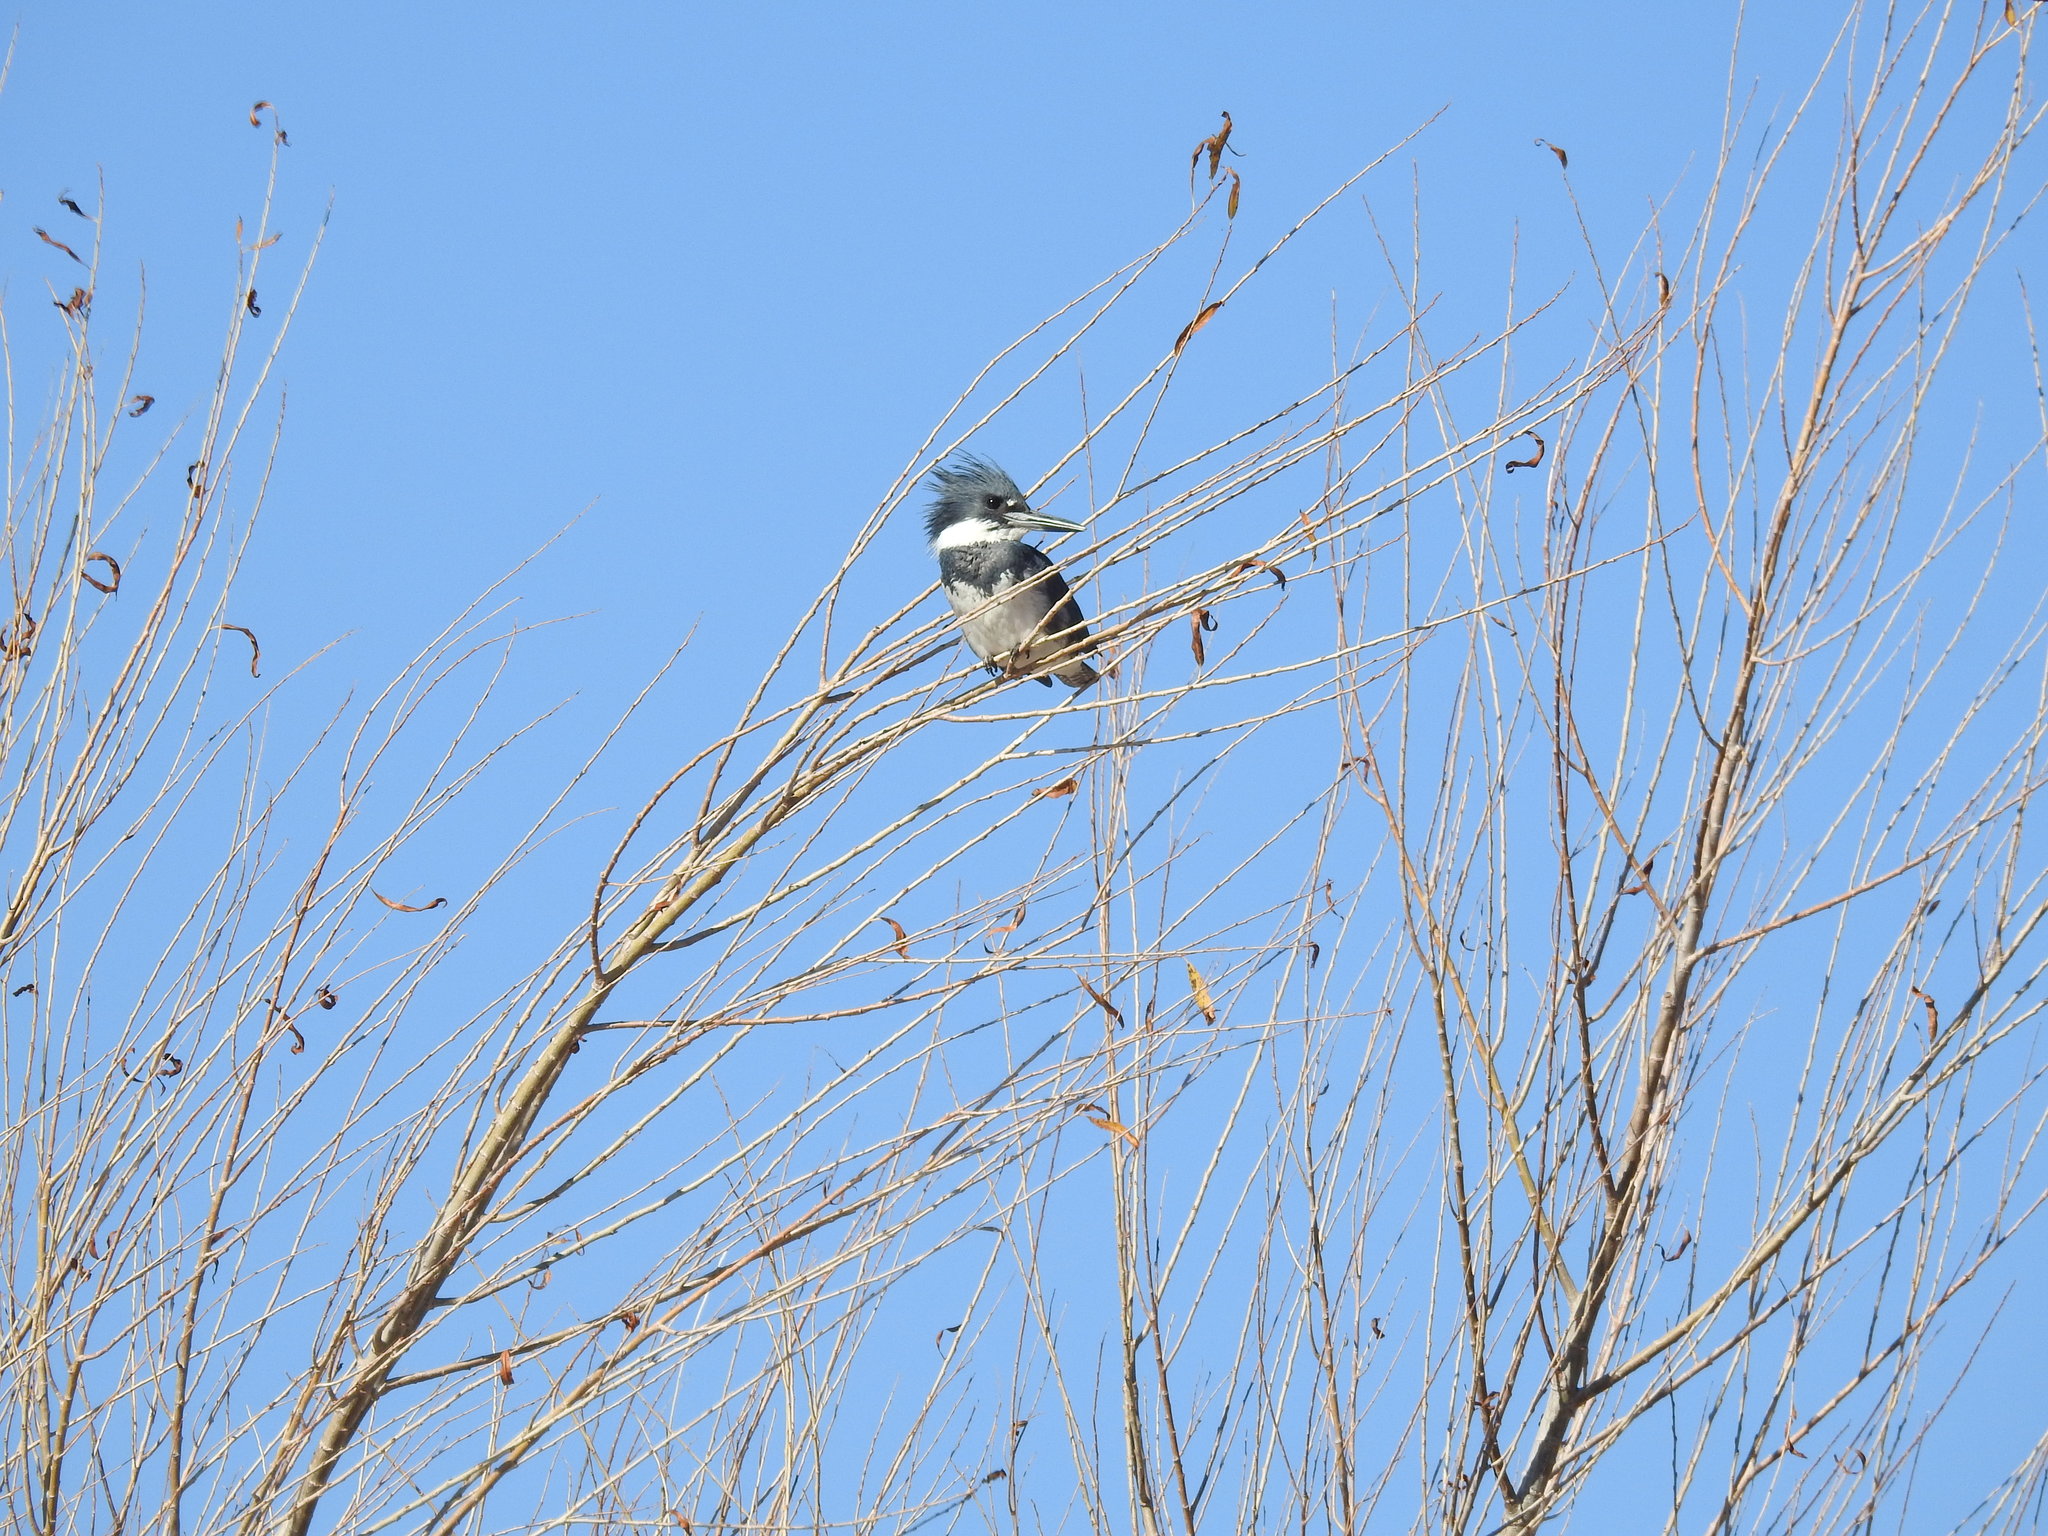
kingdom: Animalia
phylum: Chordata
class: Aves
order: Coraciiformes
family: Alcedinidae
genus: Megaceryle
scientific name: Megaceryle alcyon
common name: Belted kingfisher
